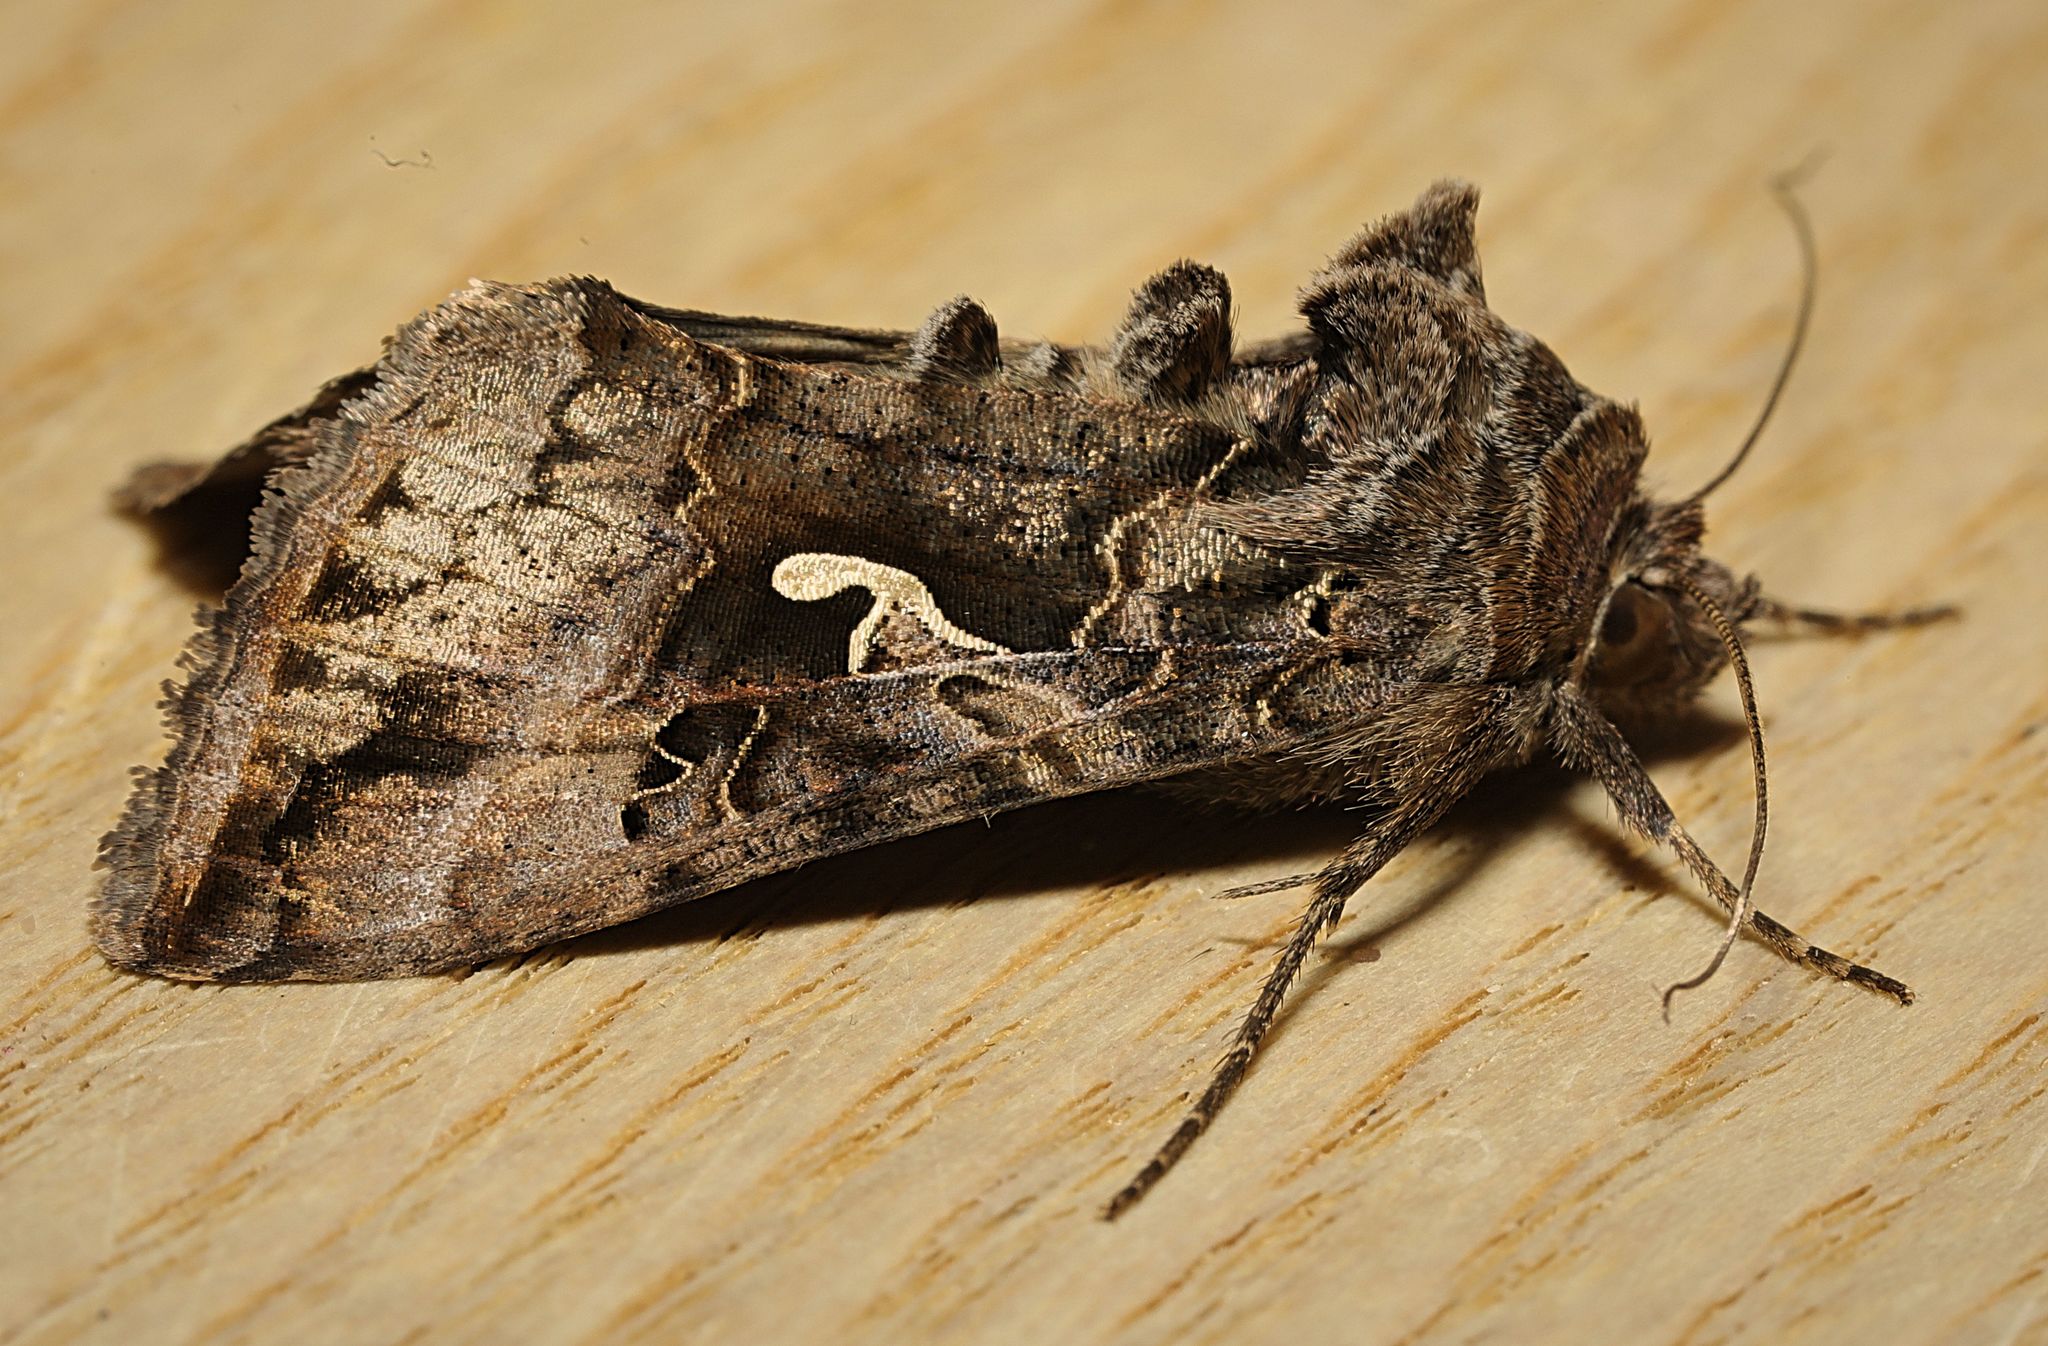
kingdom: Animalia
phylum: Arthropoda
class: Insecta
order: Lepidoptera
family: Noctuidae
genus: Autographa
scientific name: Autographa gamma
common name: Silver y
